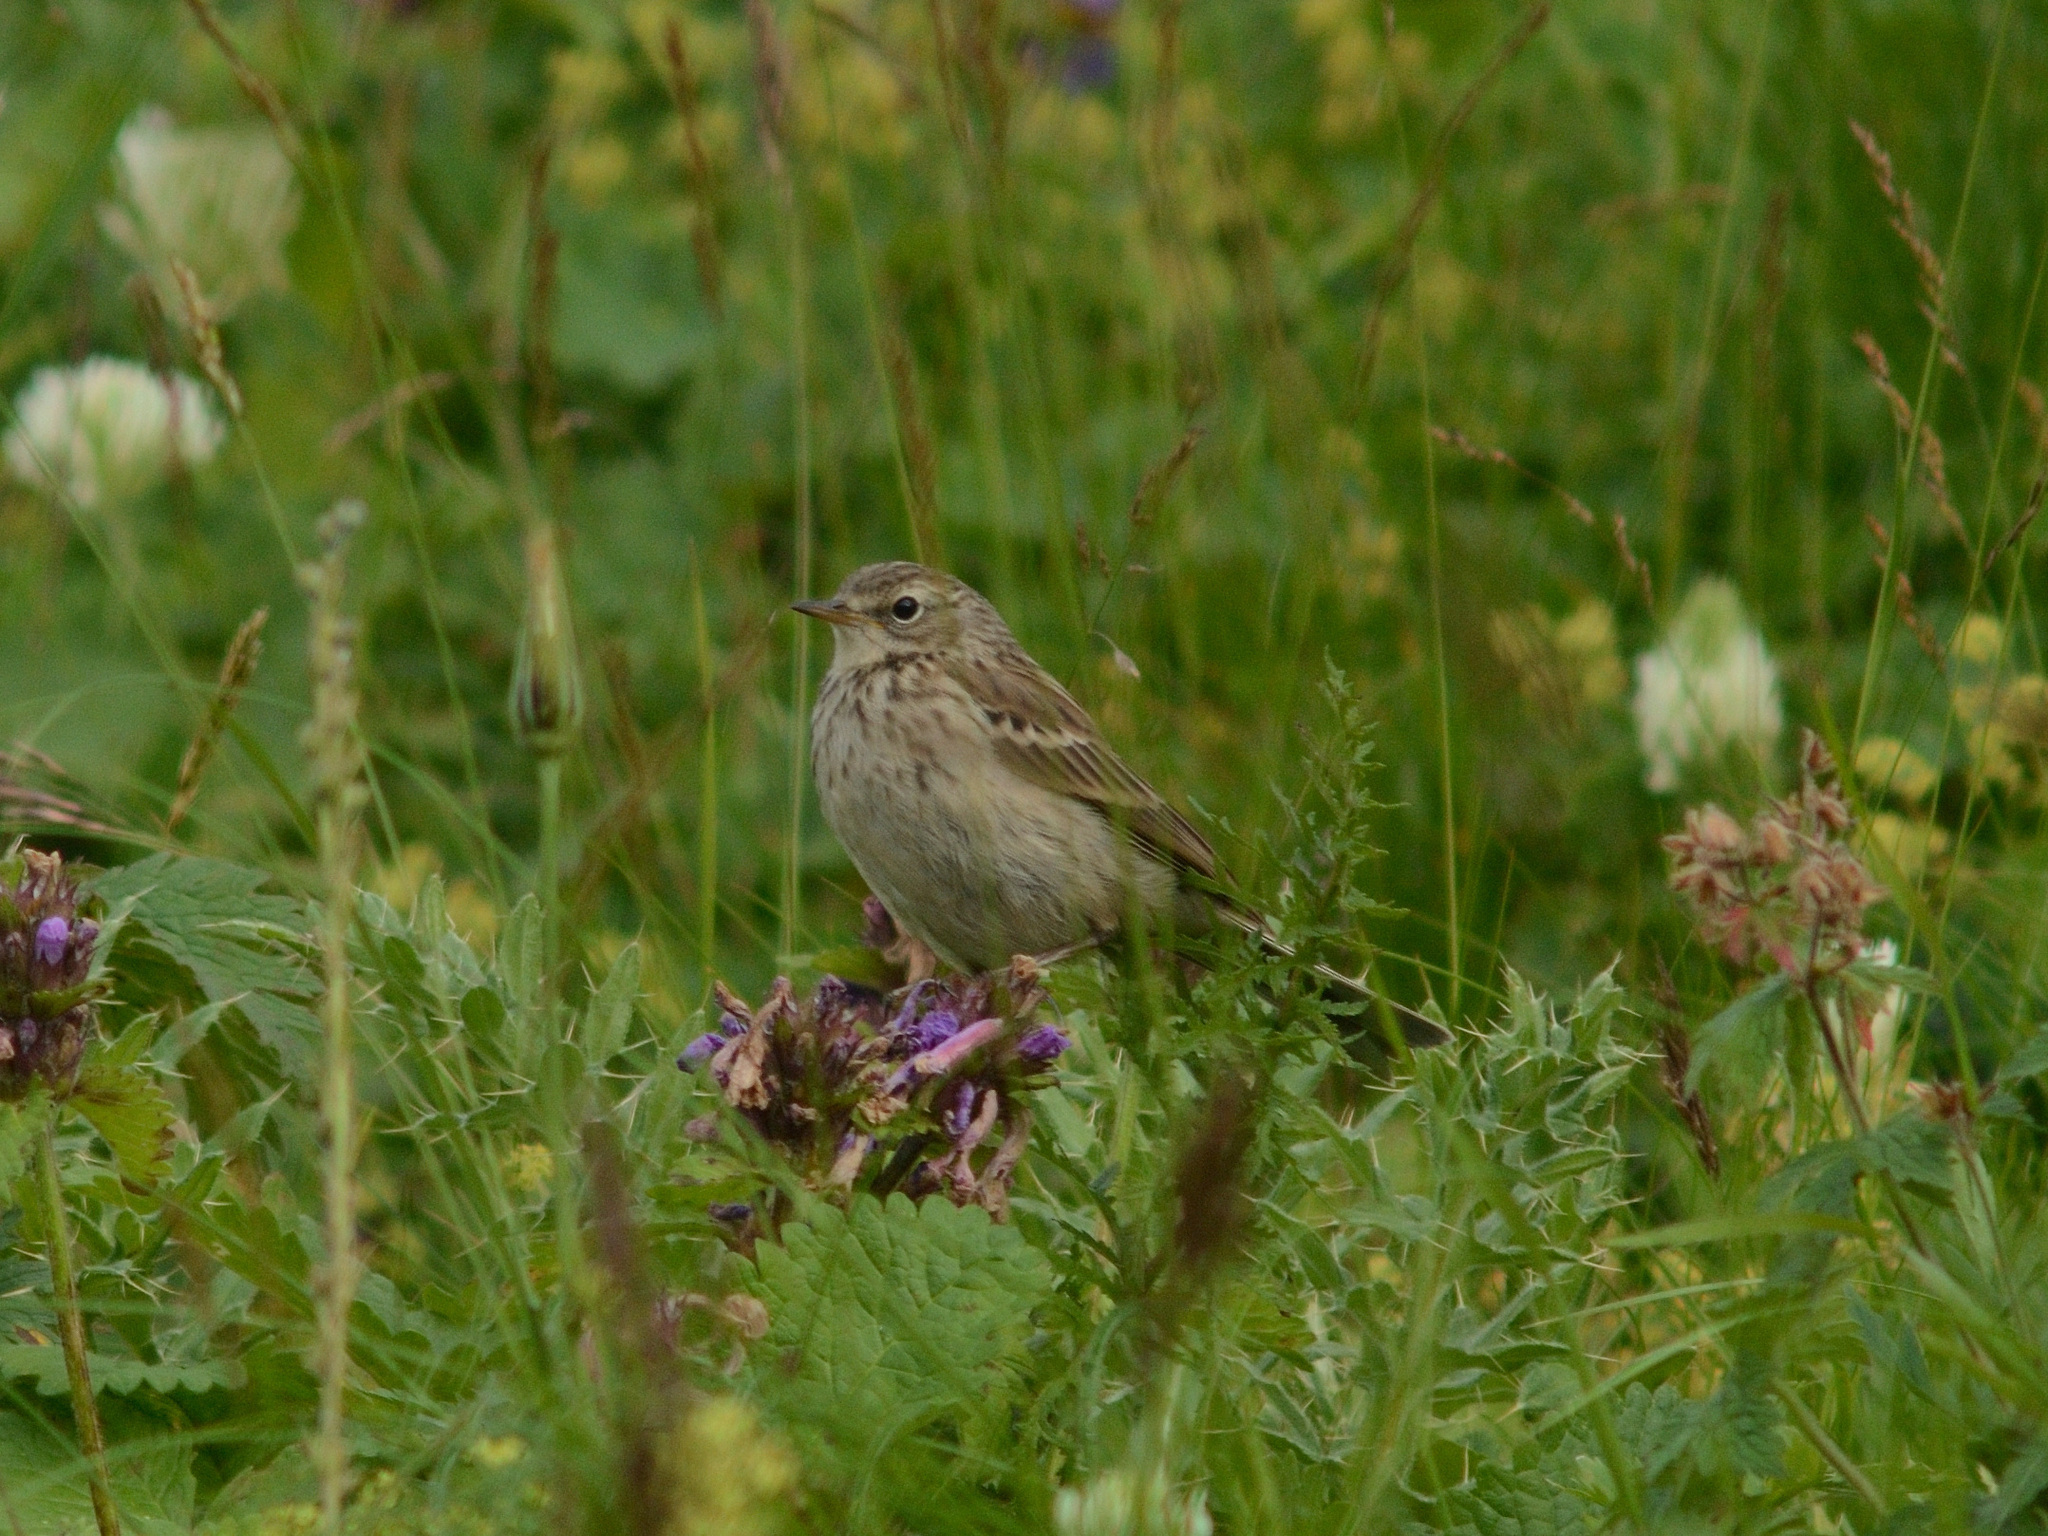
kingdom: Animalia
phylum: Chordata
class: Aves
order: Passeriformes
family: Motacillidae
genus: Anthus
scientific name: Anthus spinoletta
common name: Water pipit
